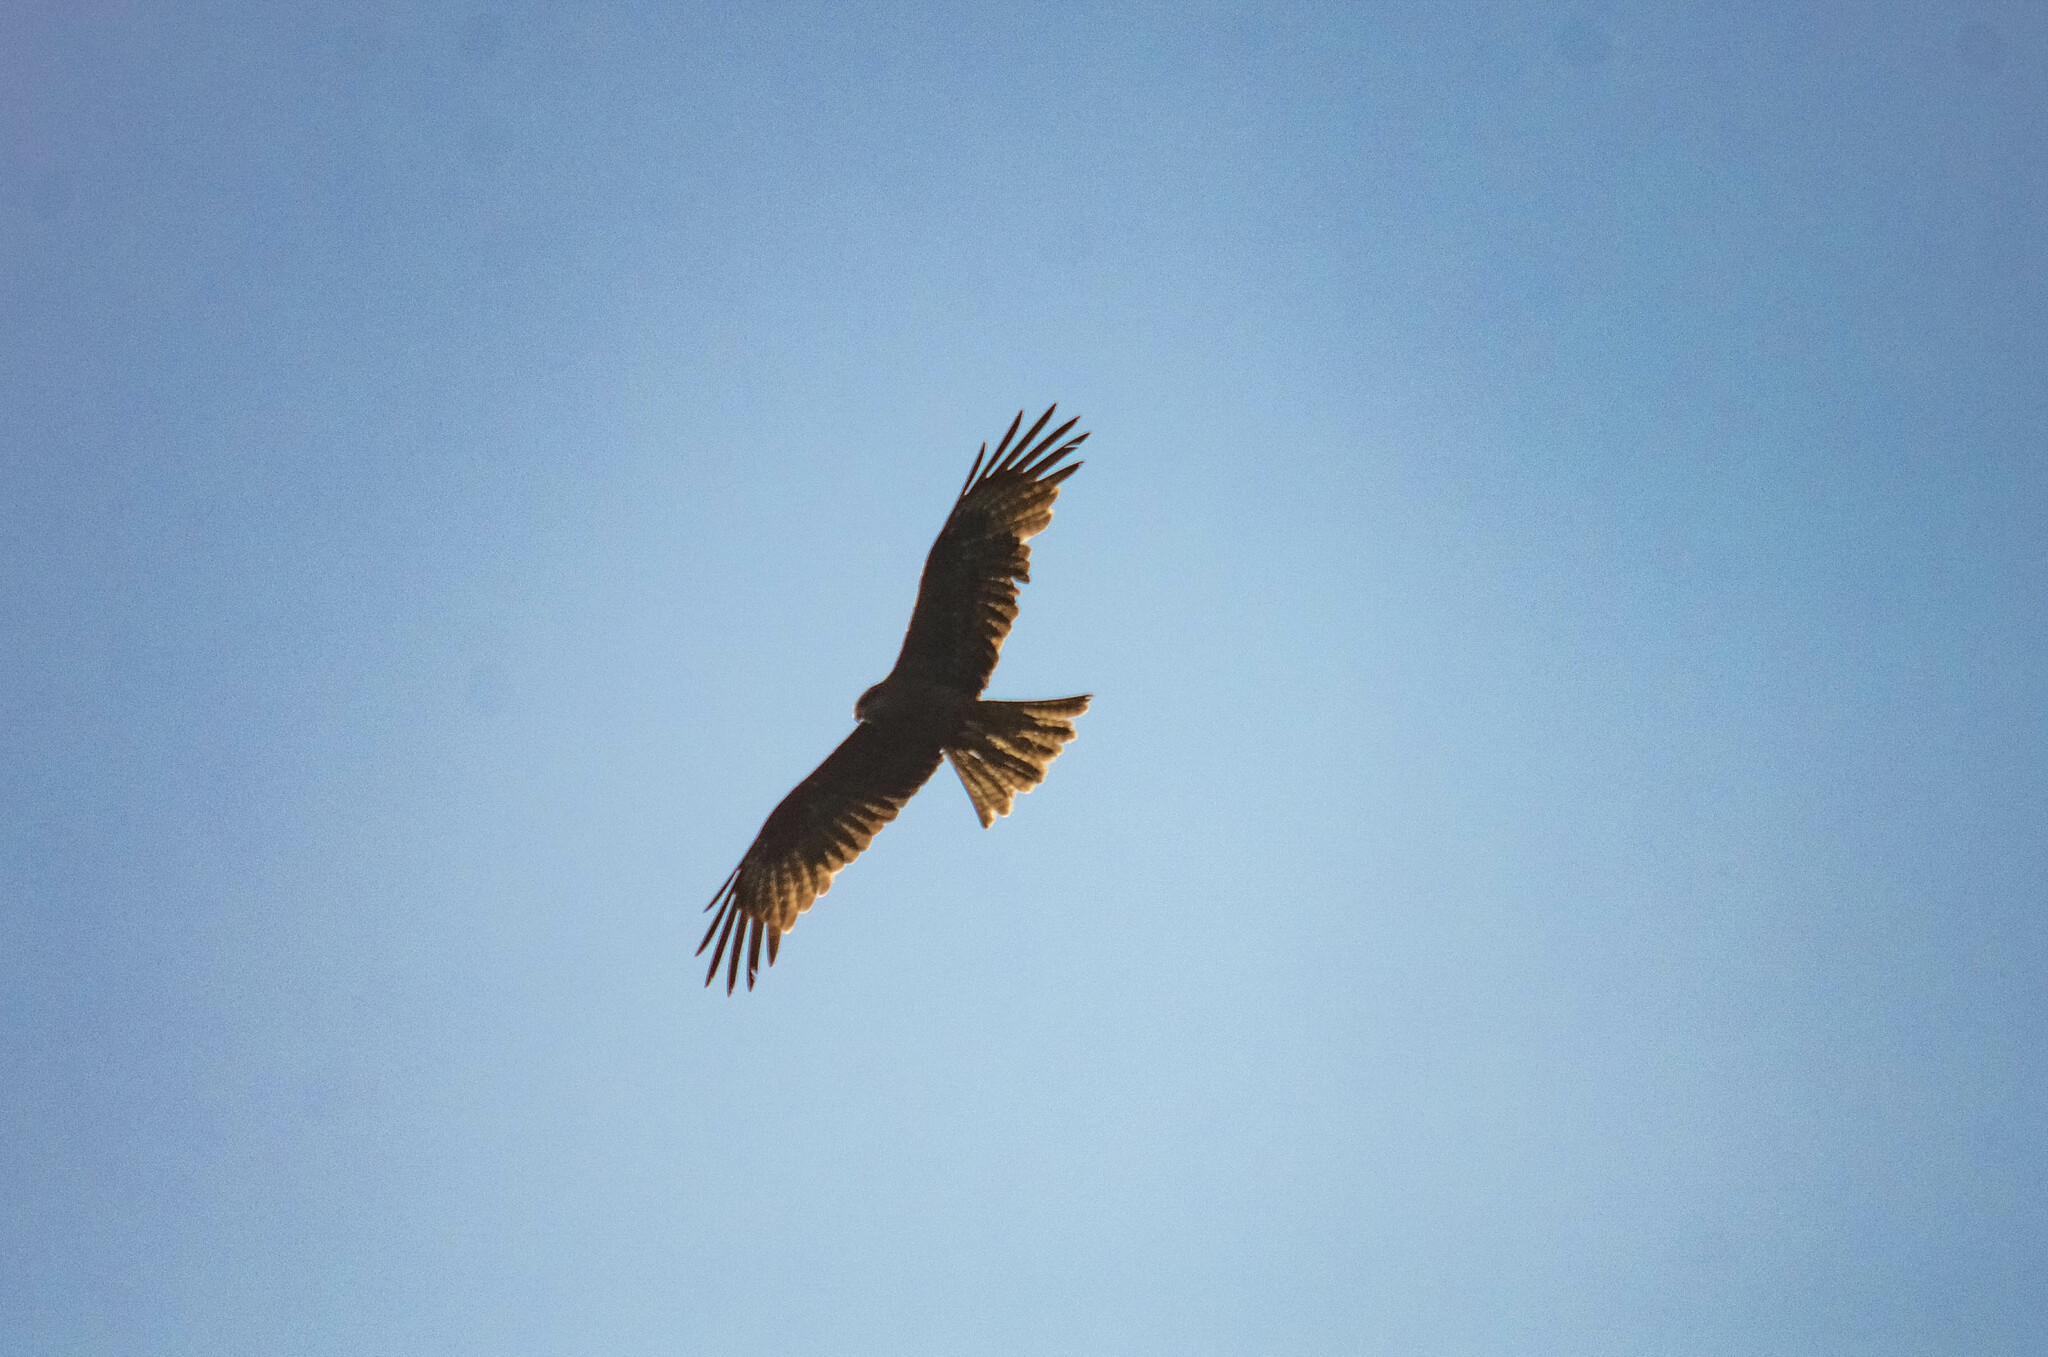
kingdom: Animalia
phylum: Chordata
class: Aves
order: Accipitriformes
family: Accipitridae
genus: Milvus
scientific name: Milvus migrans
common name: Black kite
